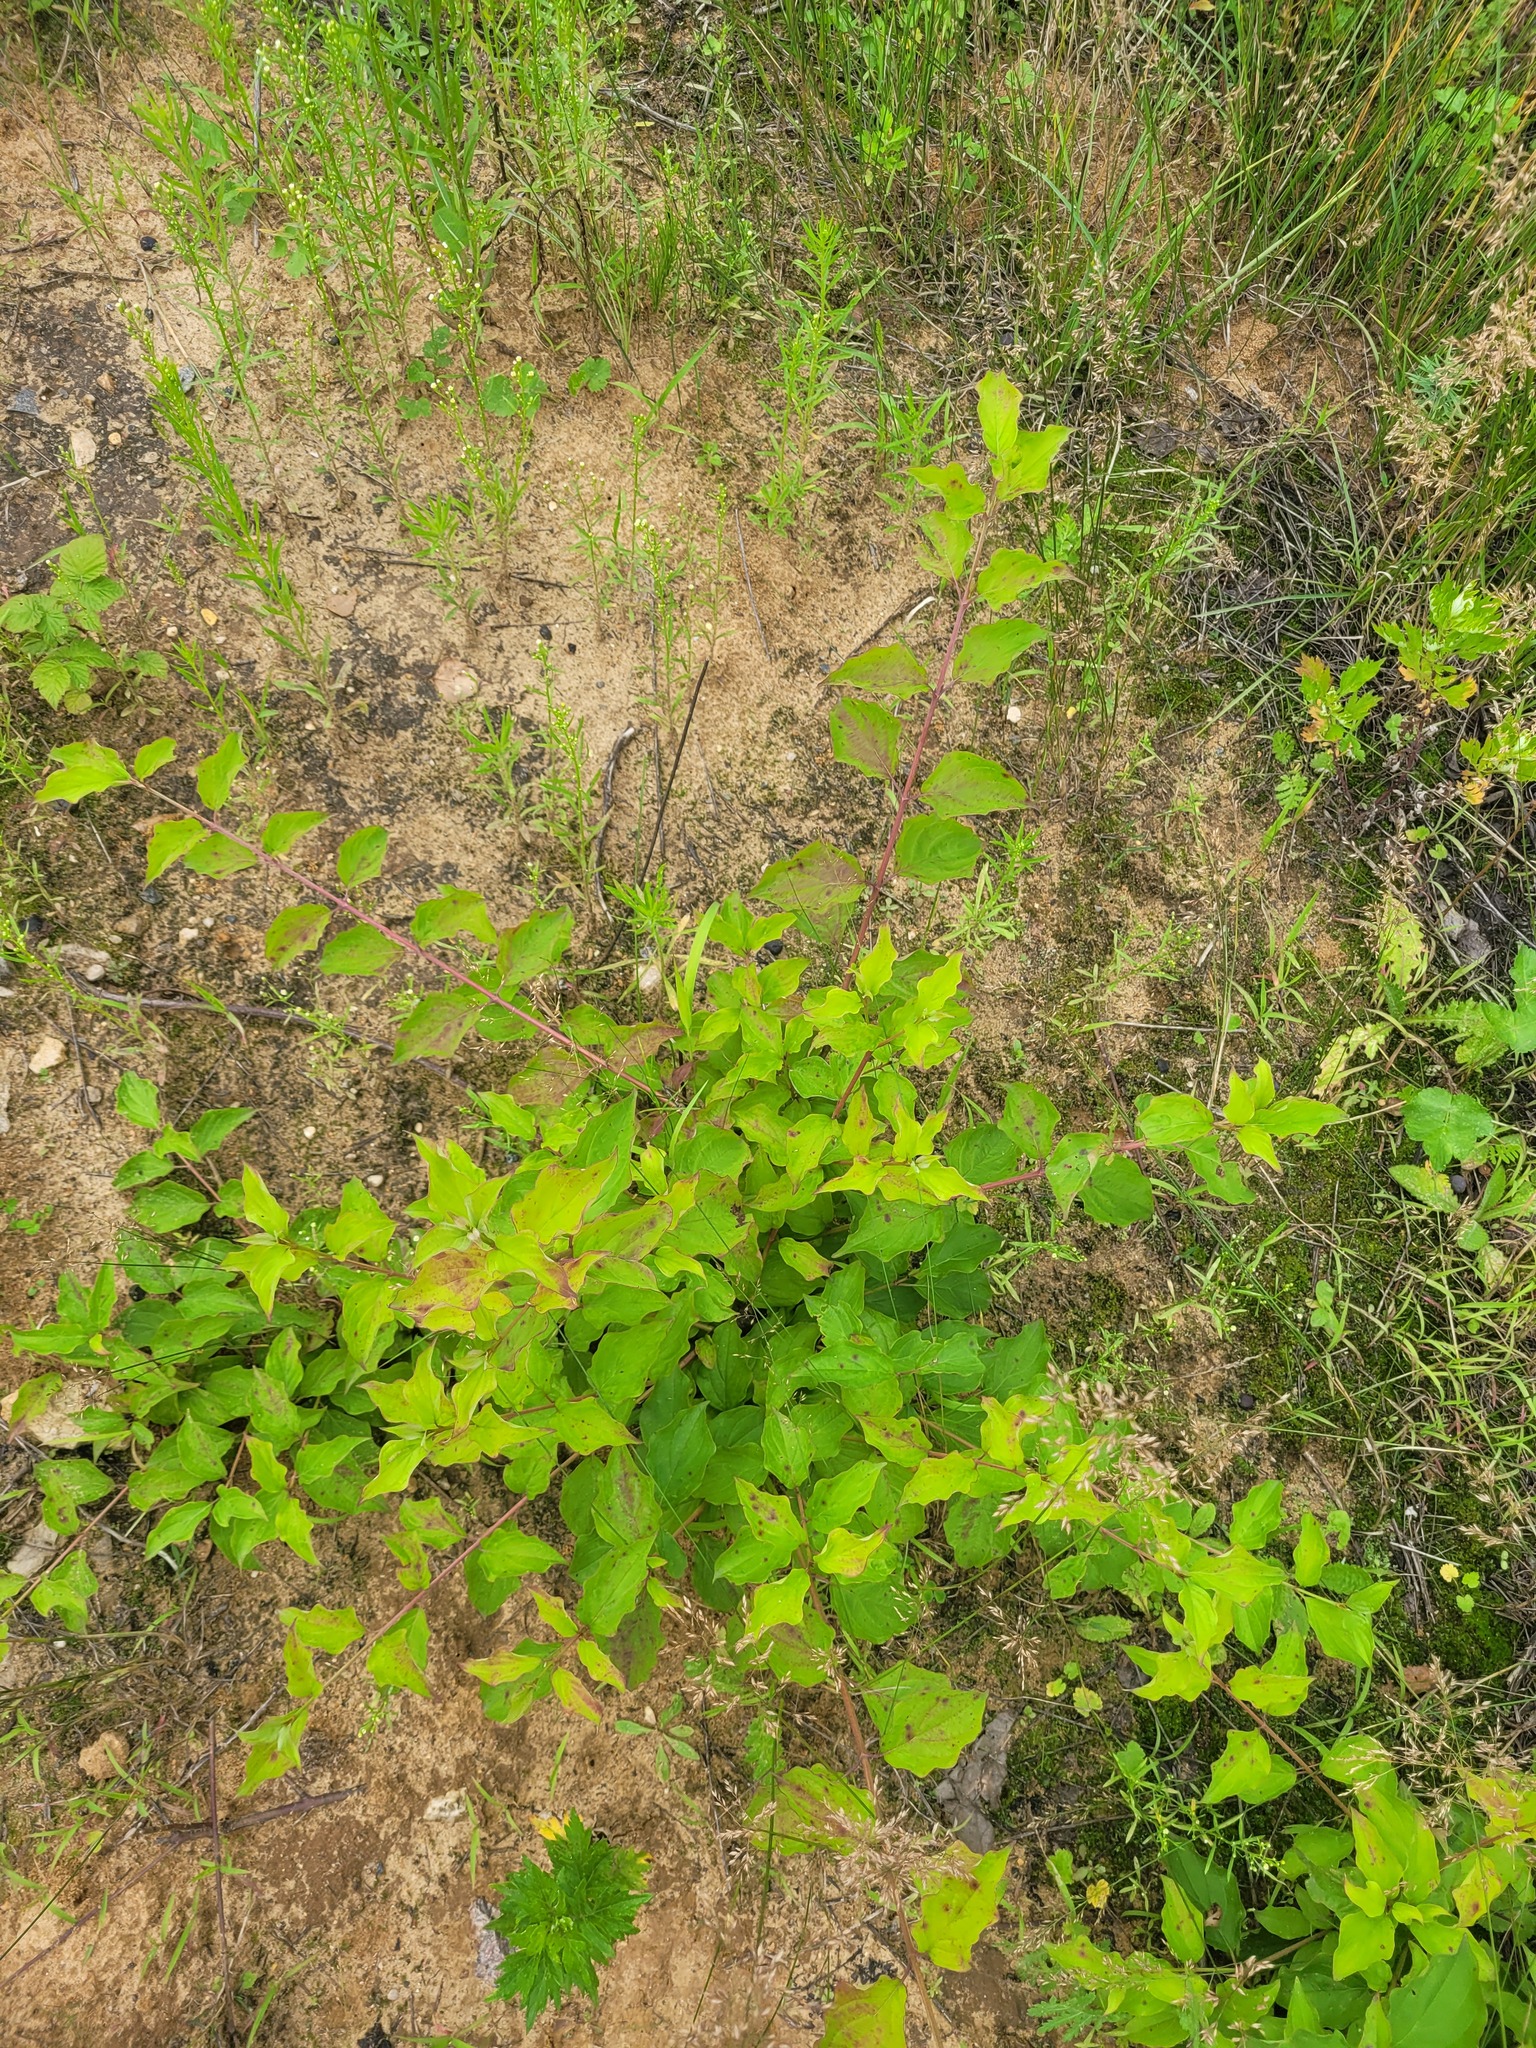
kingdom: Plantae
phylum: Tracheophyta
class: Magnoliopsida
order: Cornales
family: Cornaceae
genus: Cornus
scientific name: Cornus sanguinea
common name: Dogwood
